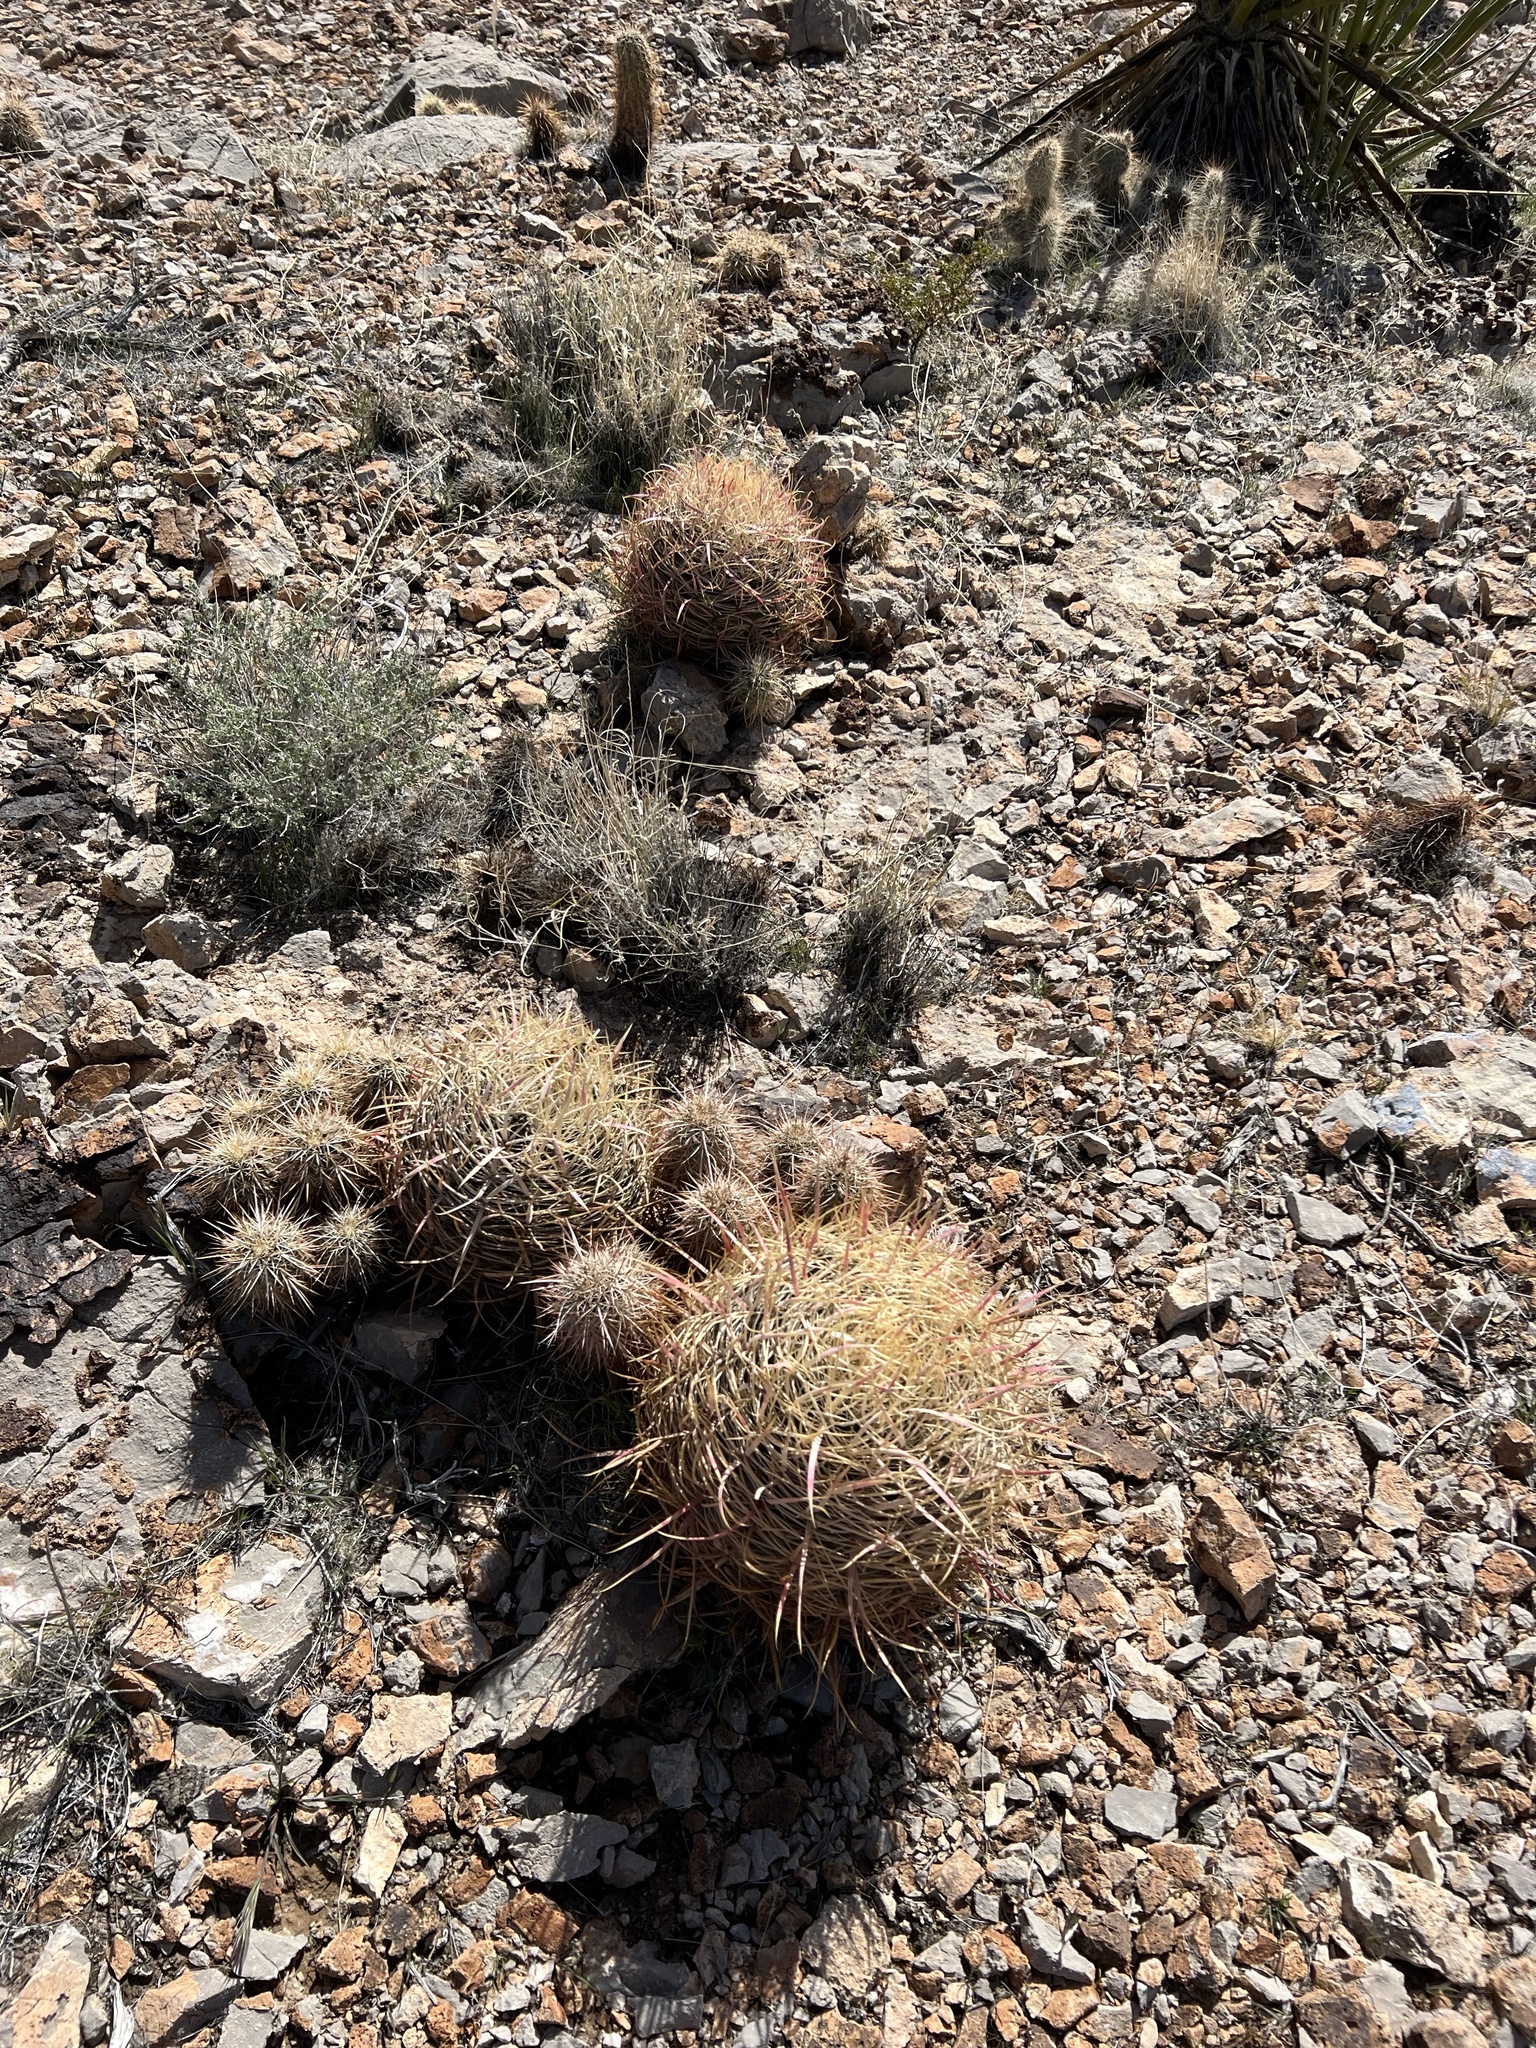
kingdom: Plantae
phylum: Tracheophyta
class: Magnoliopsida
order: Caryophyllales
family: Cactaceae
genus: Ferocactus
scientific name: Ferocactus cylindraceus
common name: California barrel cactus
